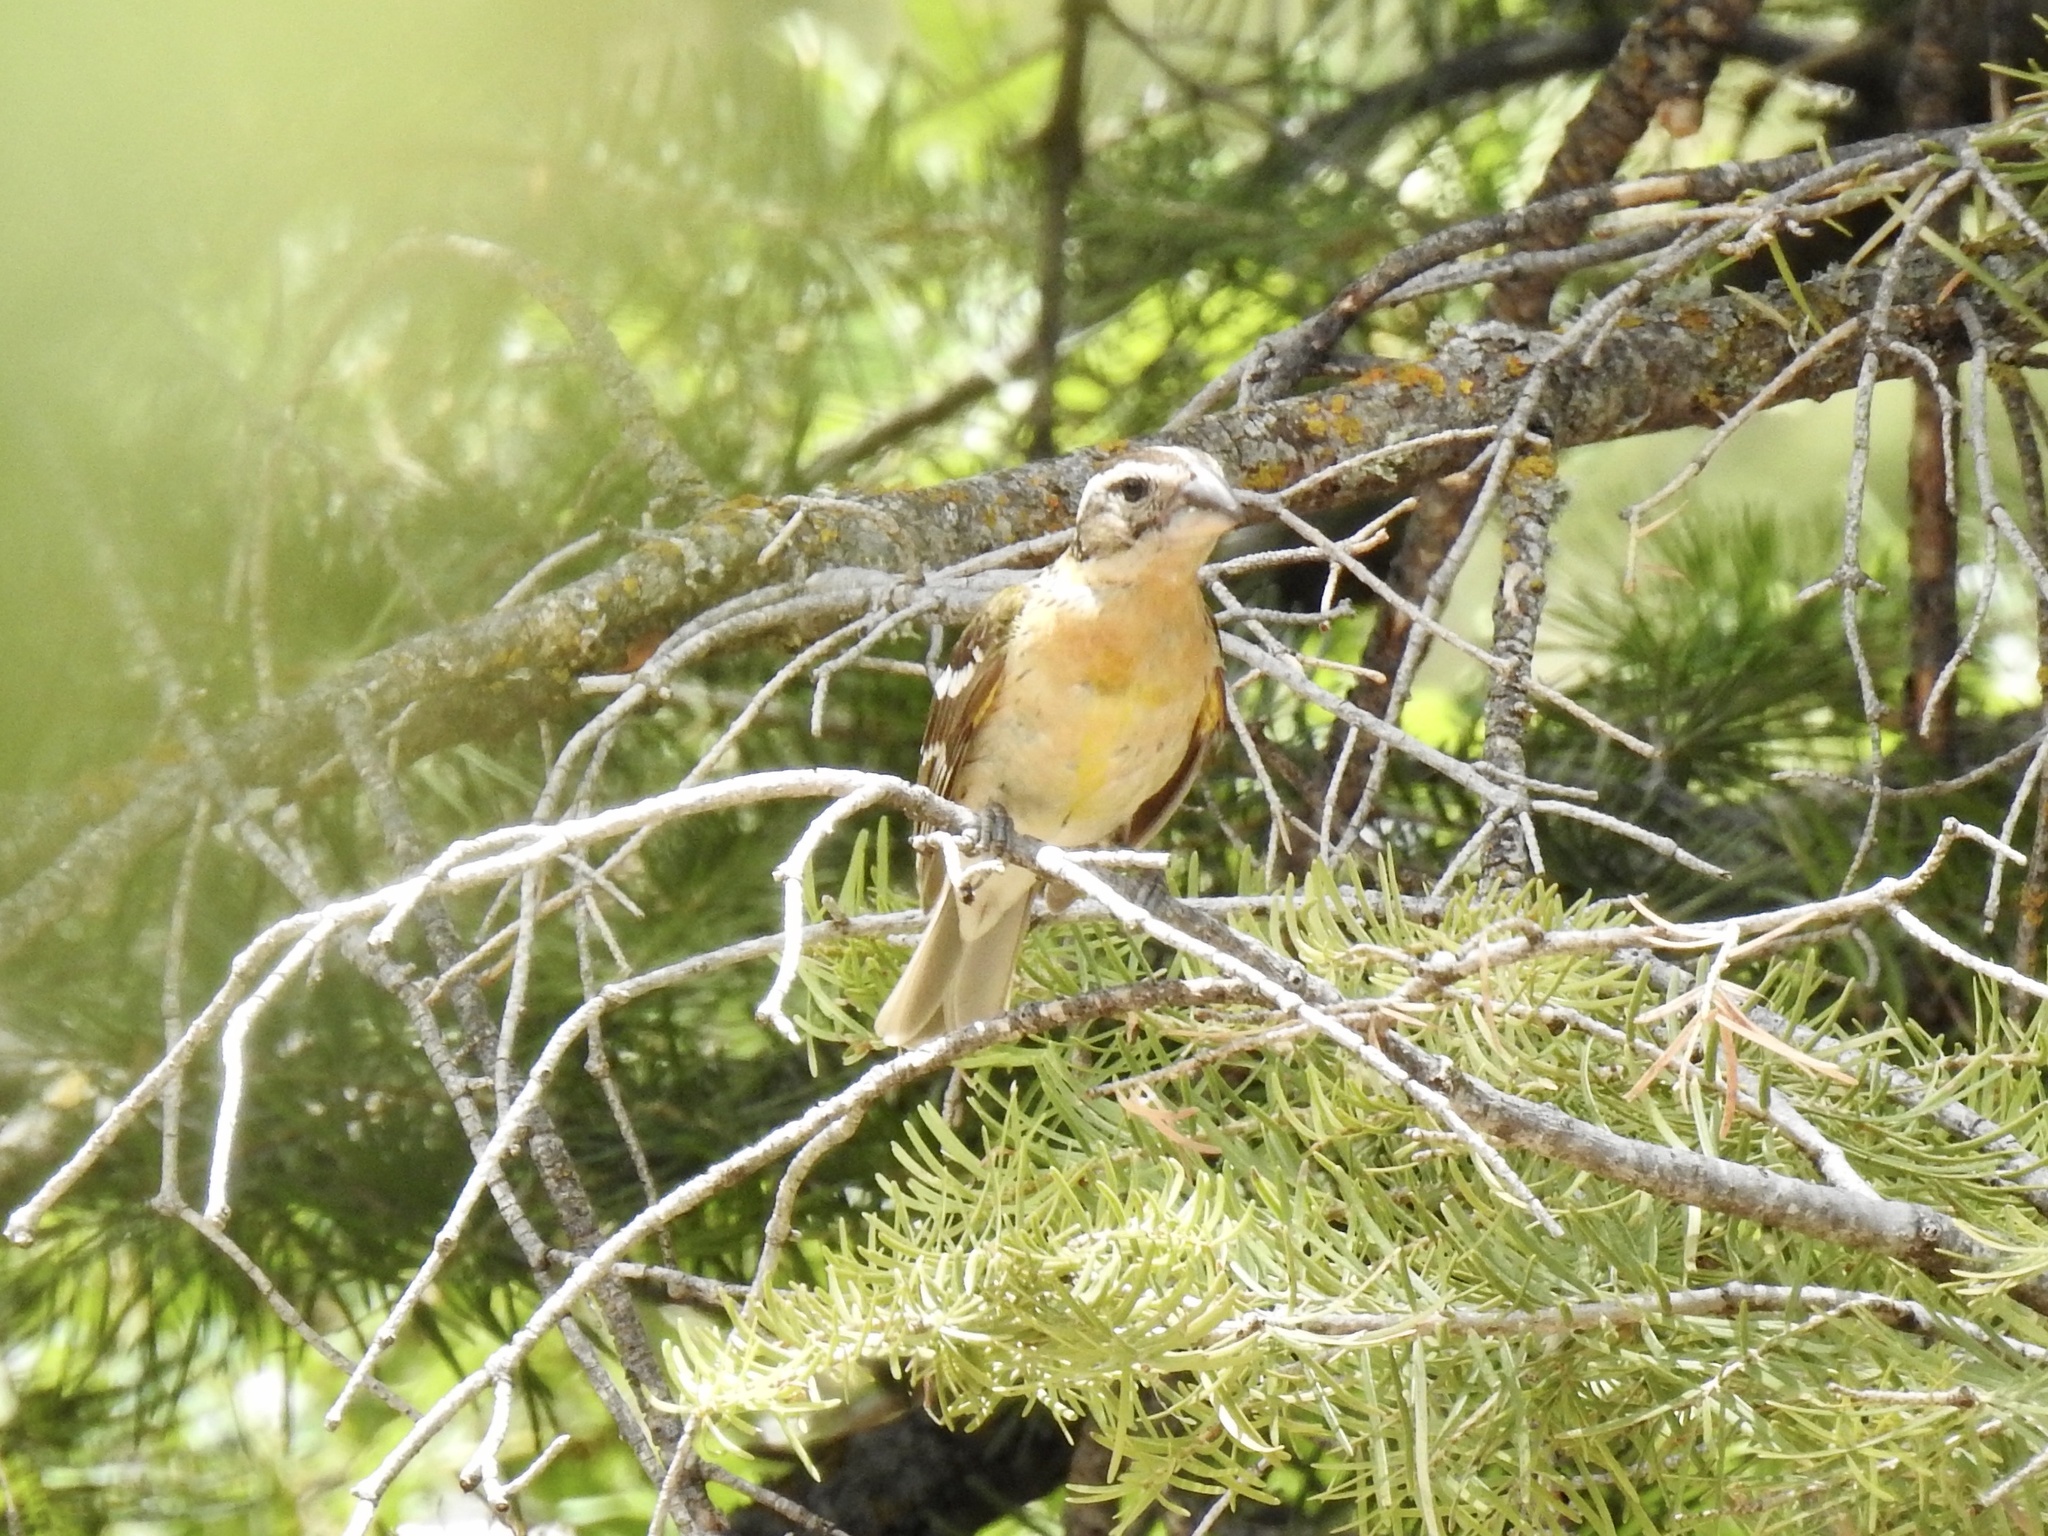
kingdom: Animalia
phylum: Chordata
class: Aves
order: Passeriformes
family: Cardinalidae
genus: Pheucticus
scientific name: Pheucticus melanocephalus
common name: Black-headed grosbeak
